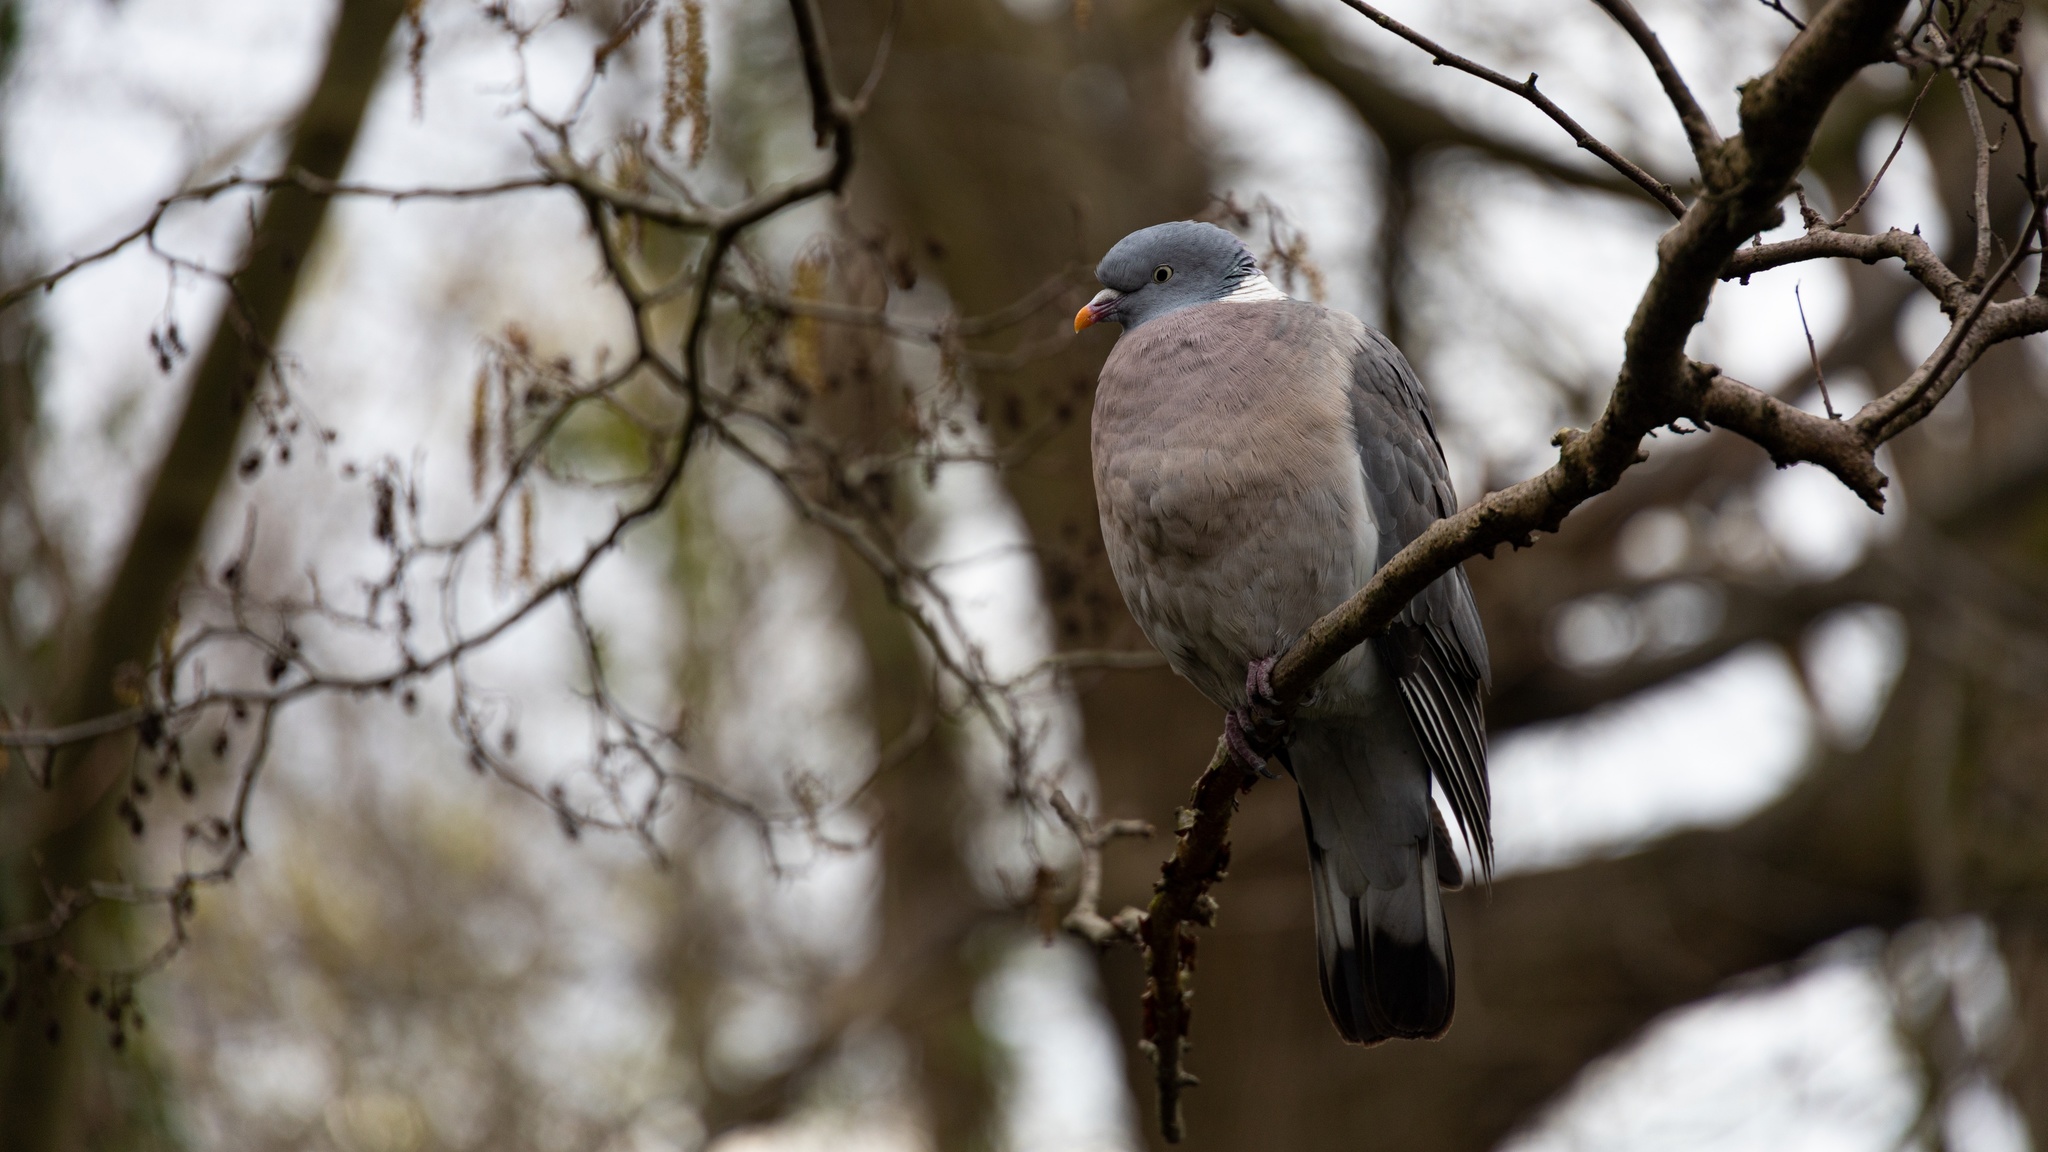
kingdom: Animalia
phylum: Chordata
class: Aves
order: Columbiformes
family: Columbidae
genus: Columba
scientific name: Columba palumbus
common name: Common wood pigeon
